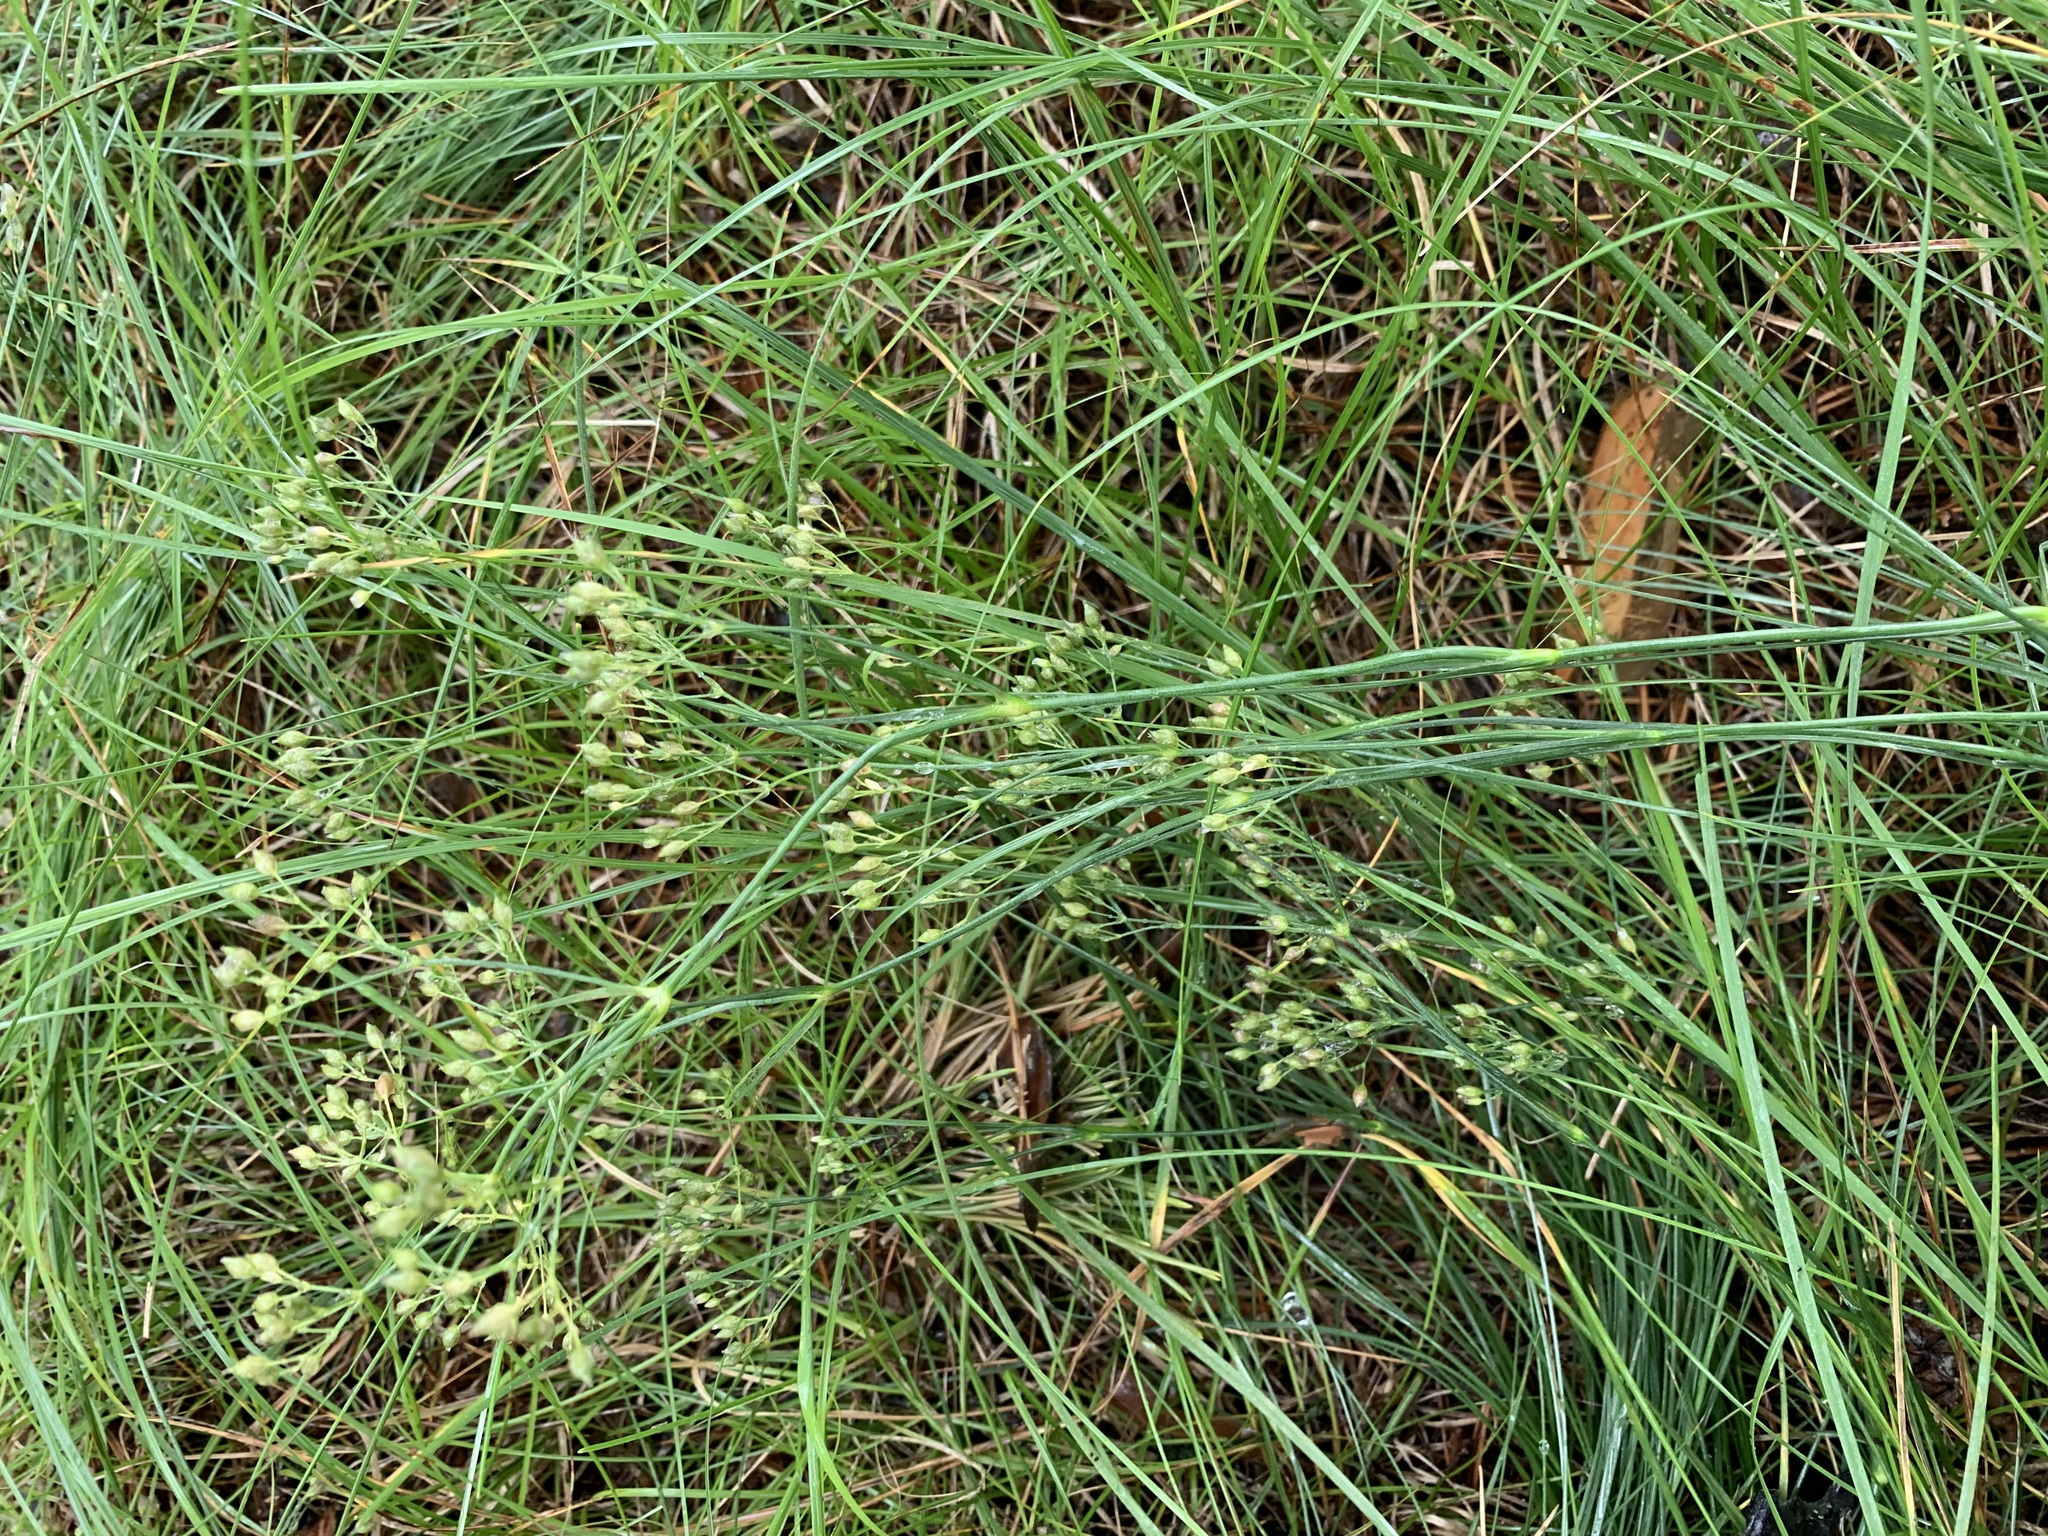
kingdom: Plantae
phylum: Tracheophyta
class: Magnoliopsida
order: Caryophyllales
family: Caryophyllaceae
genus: Eremogone
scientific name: Eremogone longifolia
